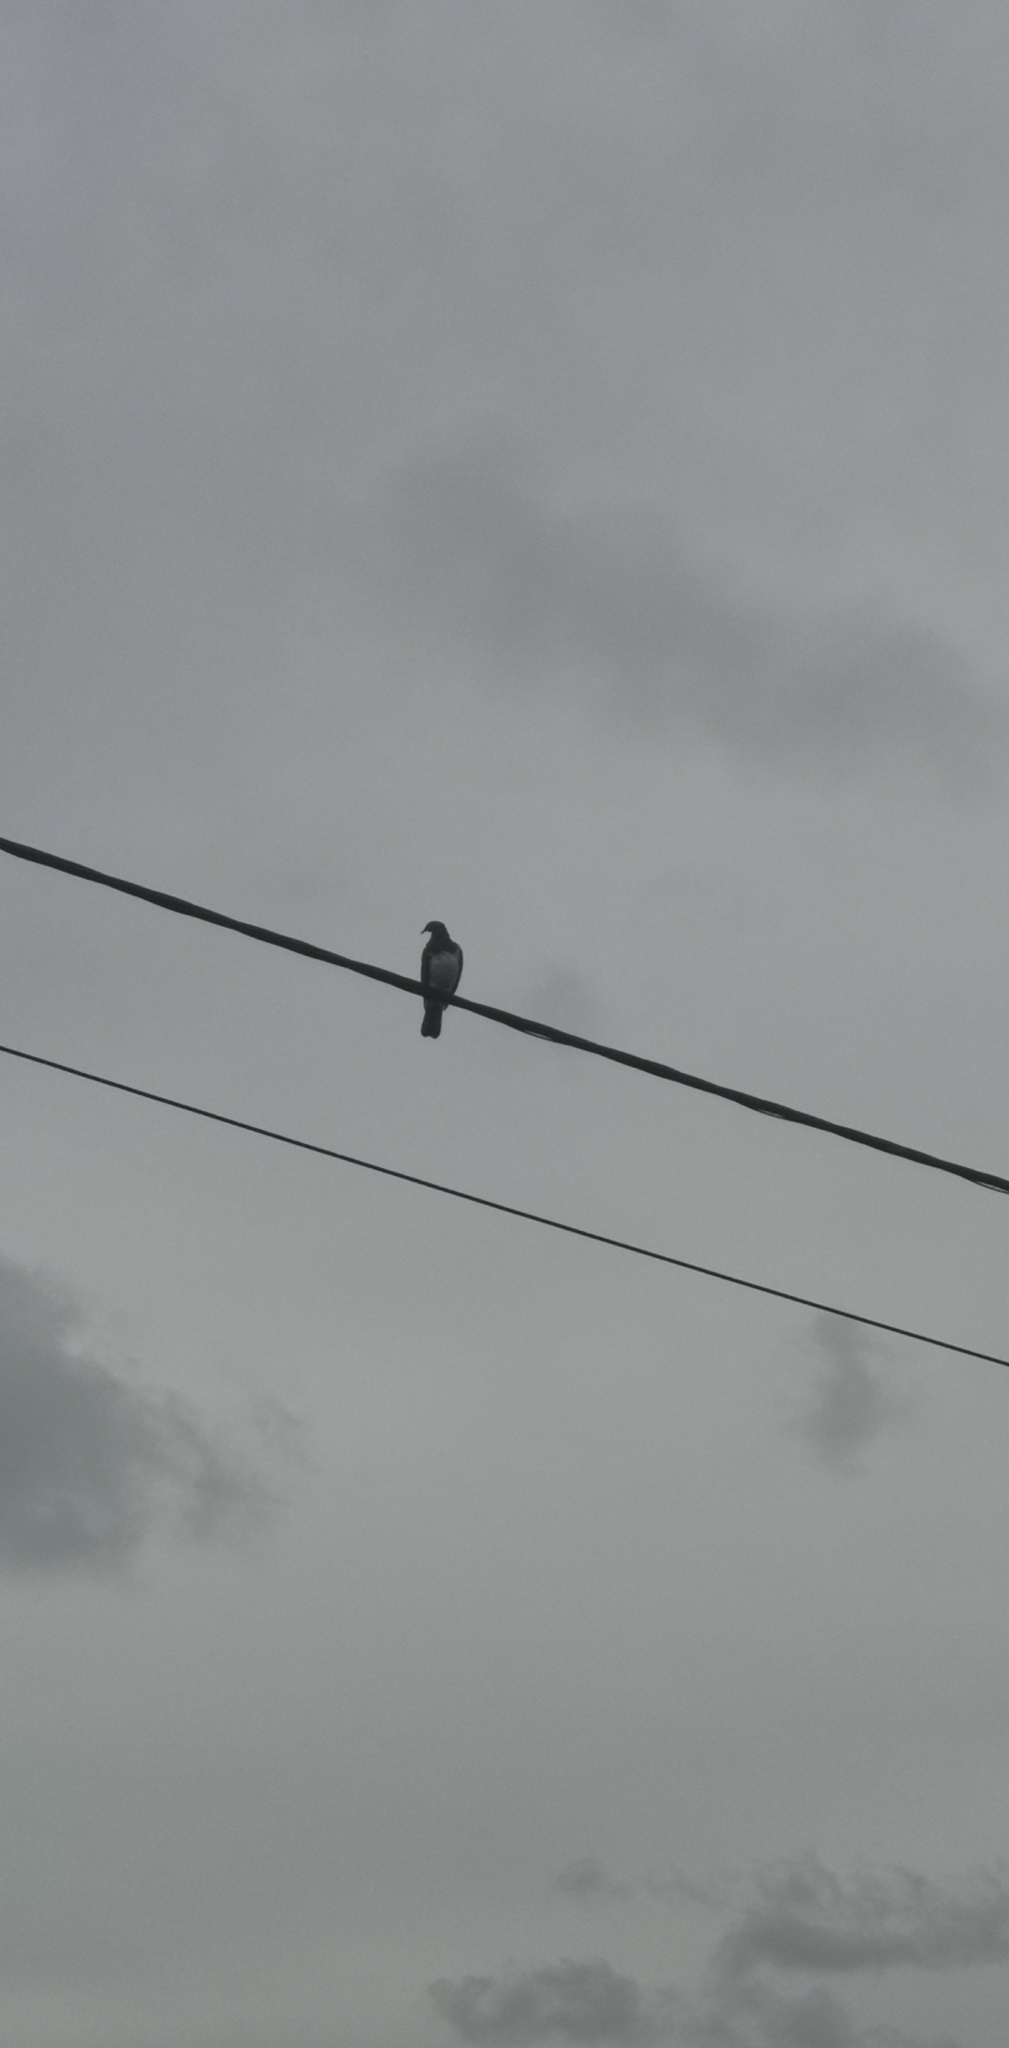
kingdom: Animalia
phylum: Chordata
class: Aves
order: Columbiformes
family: Columbidae
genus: Hemiphaga
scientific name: Hemiphaga novaeseelandiae
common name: New zealand pigeon
